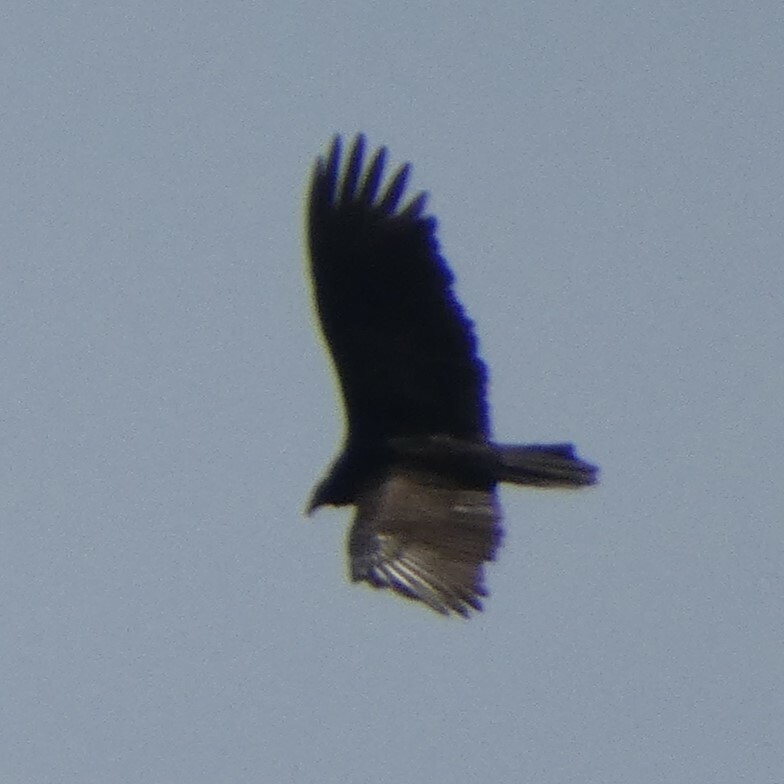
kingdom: Animalia
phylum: Chordata
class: Aves
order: Accipitriformes
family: Cathartidae
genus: Cathartes
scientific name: Cathartes aura
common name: Turkey vulture
